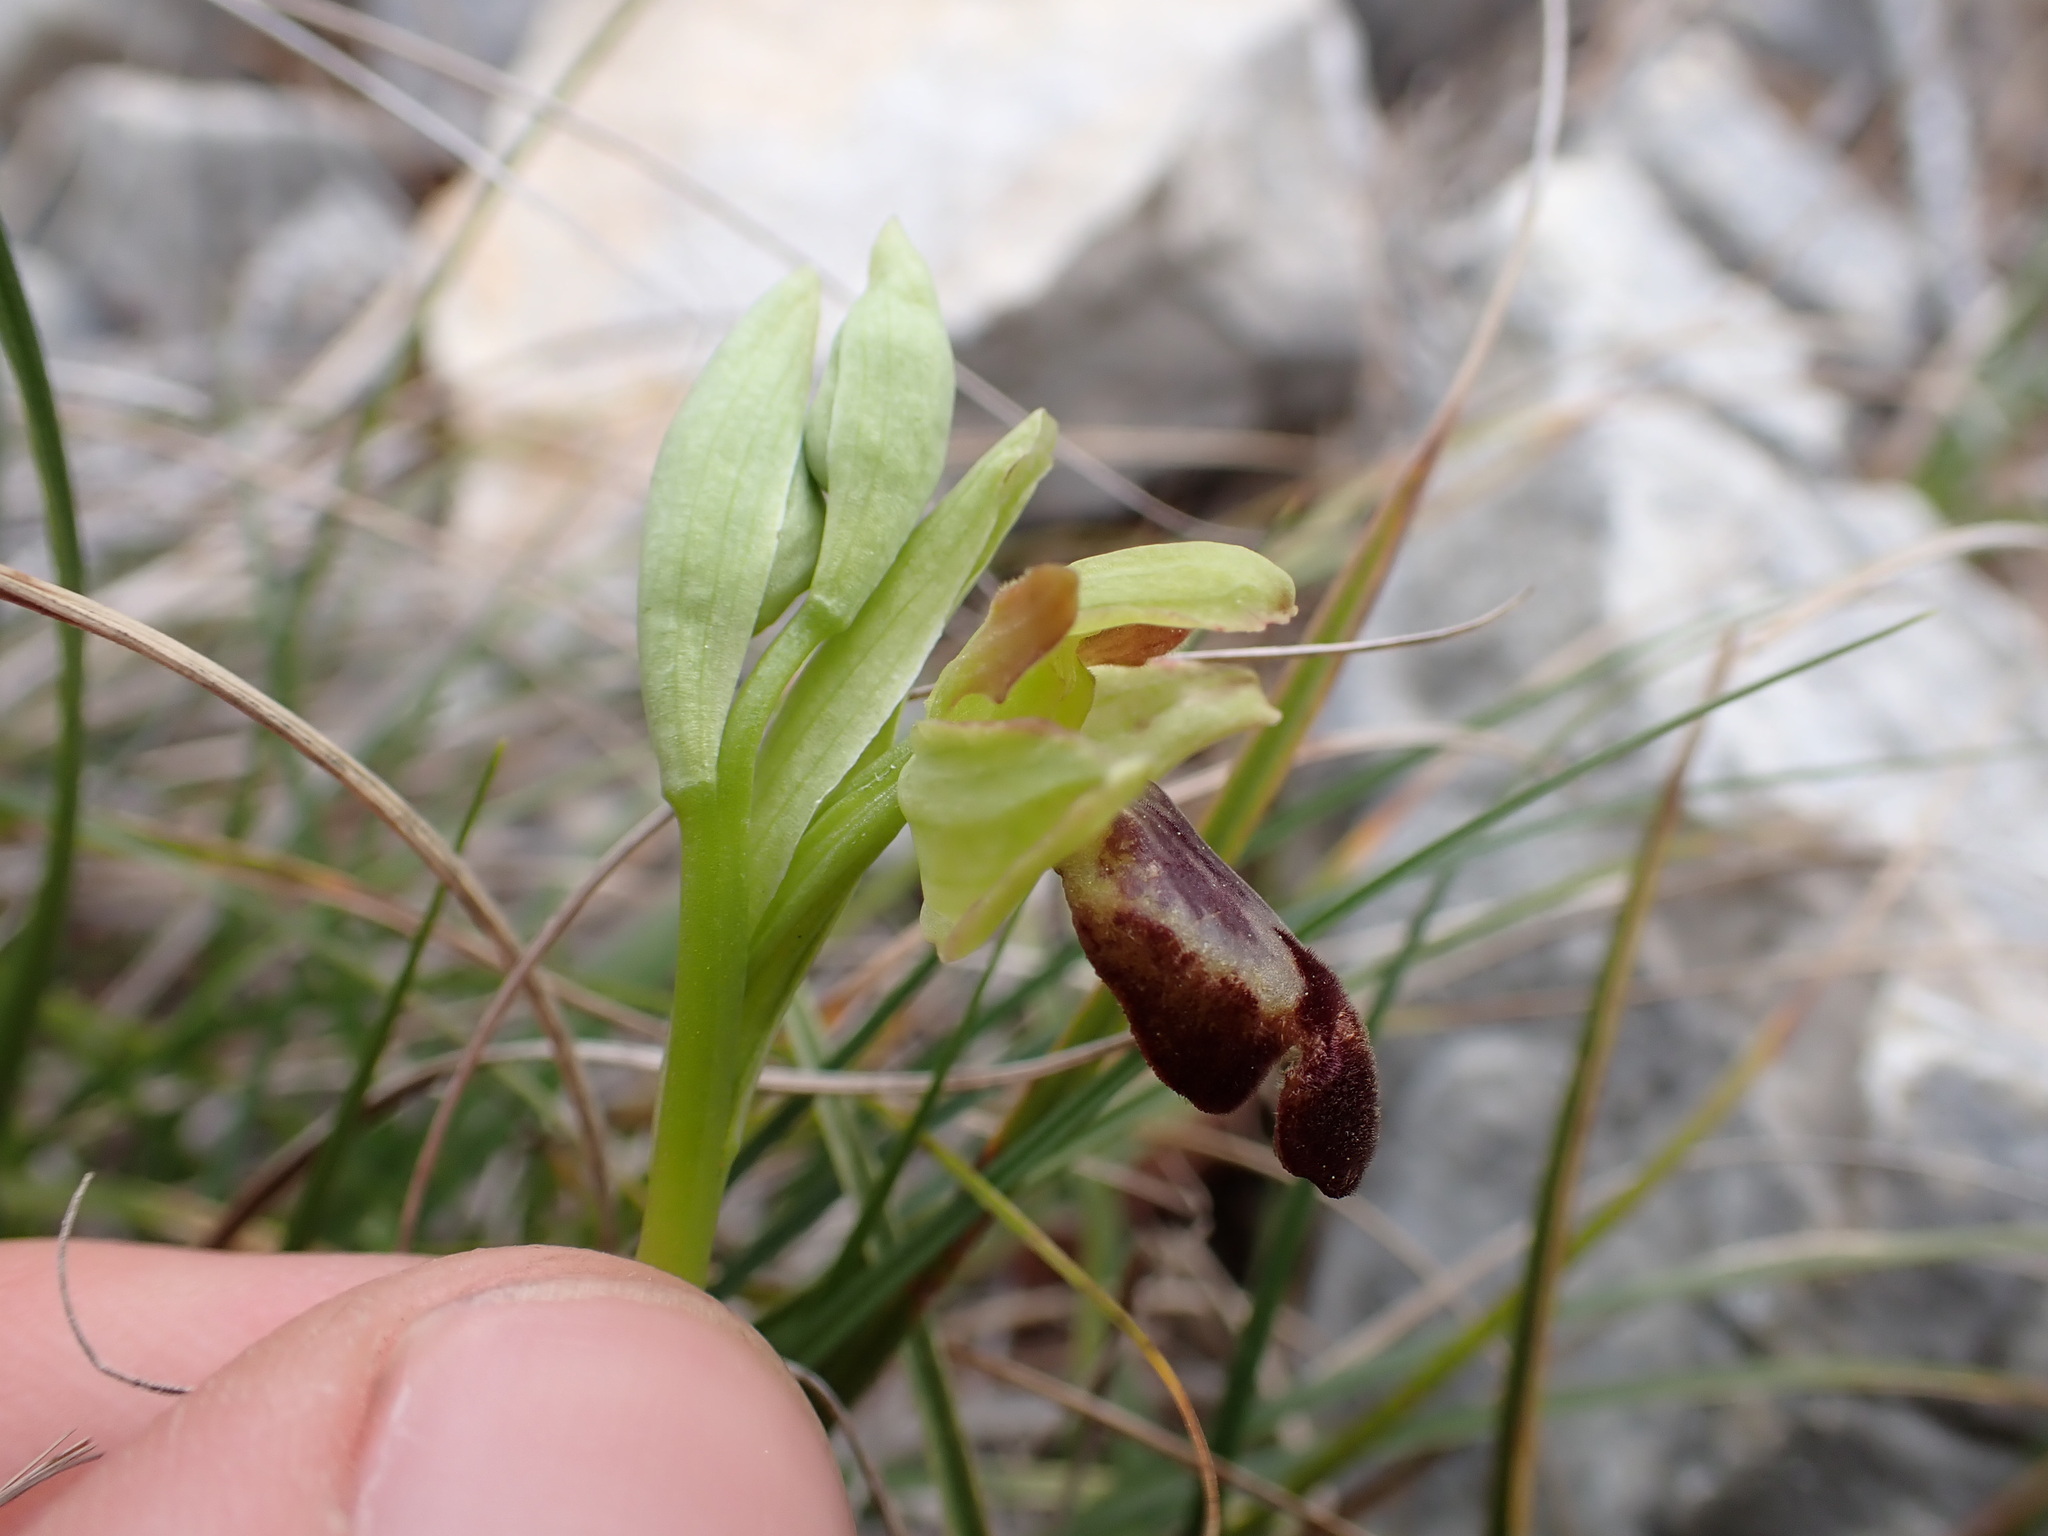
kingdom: Plantae
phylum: Tracheophyta
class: Liliopsida
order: Asparagales
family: Orchidaceae
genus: Ophrys
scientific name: Ophrys fusca
